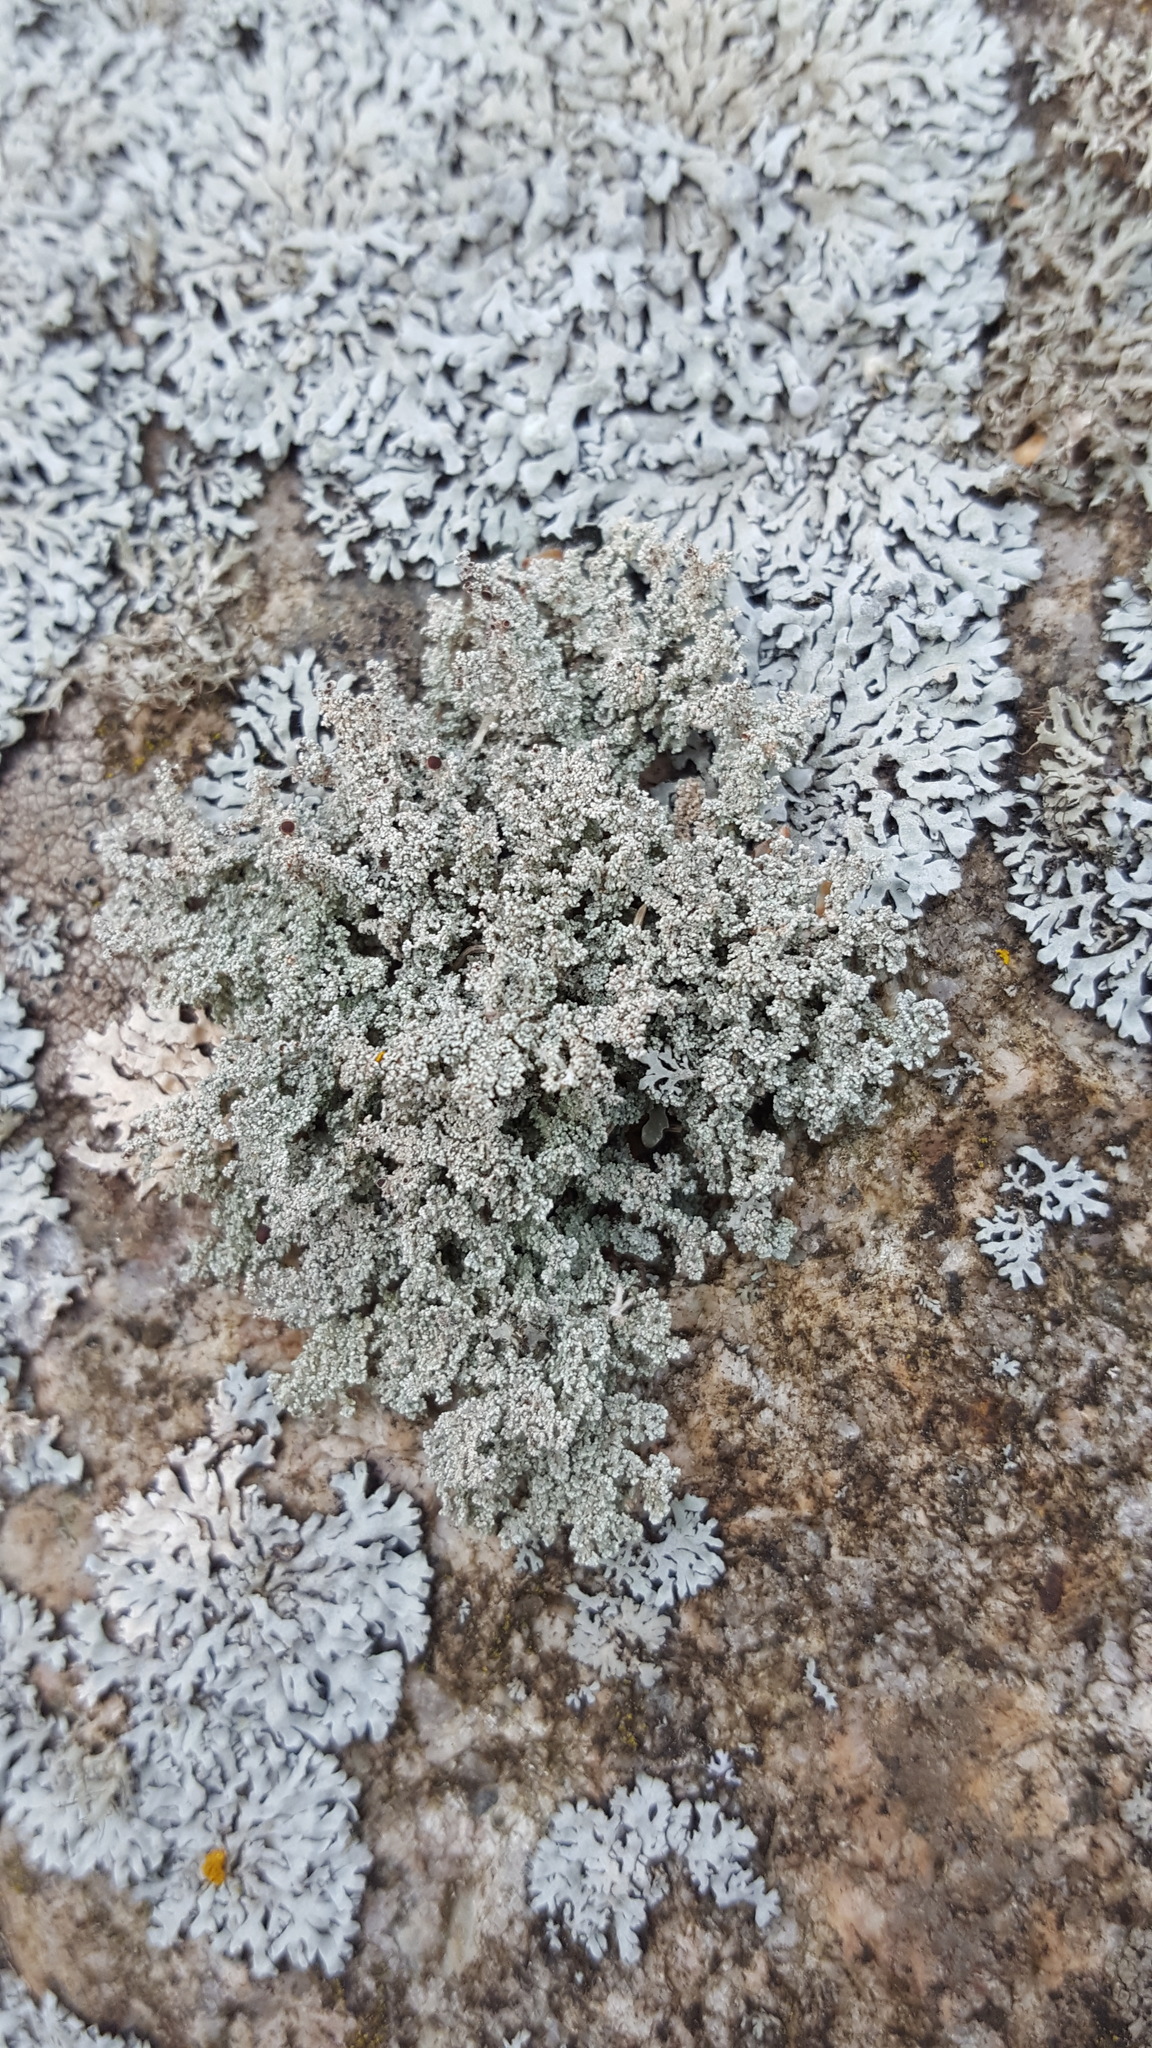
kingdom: Fungi
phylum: Ascomycota
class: Lecanoromycetes
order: Lecanorales
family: Stereocaulaceae
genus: Stereocaulon
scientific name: Stereocaulon saxatile
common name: Rock foam
